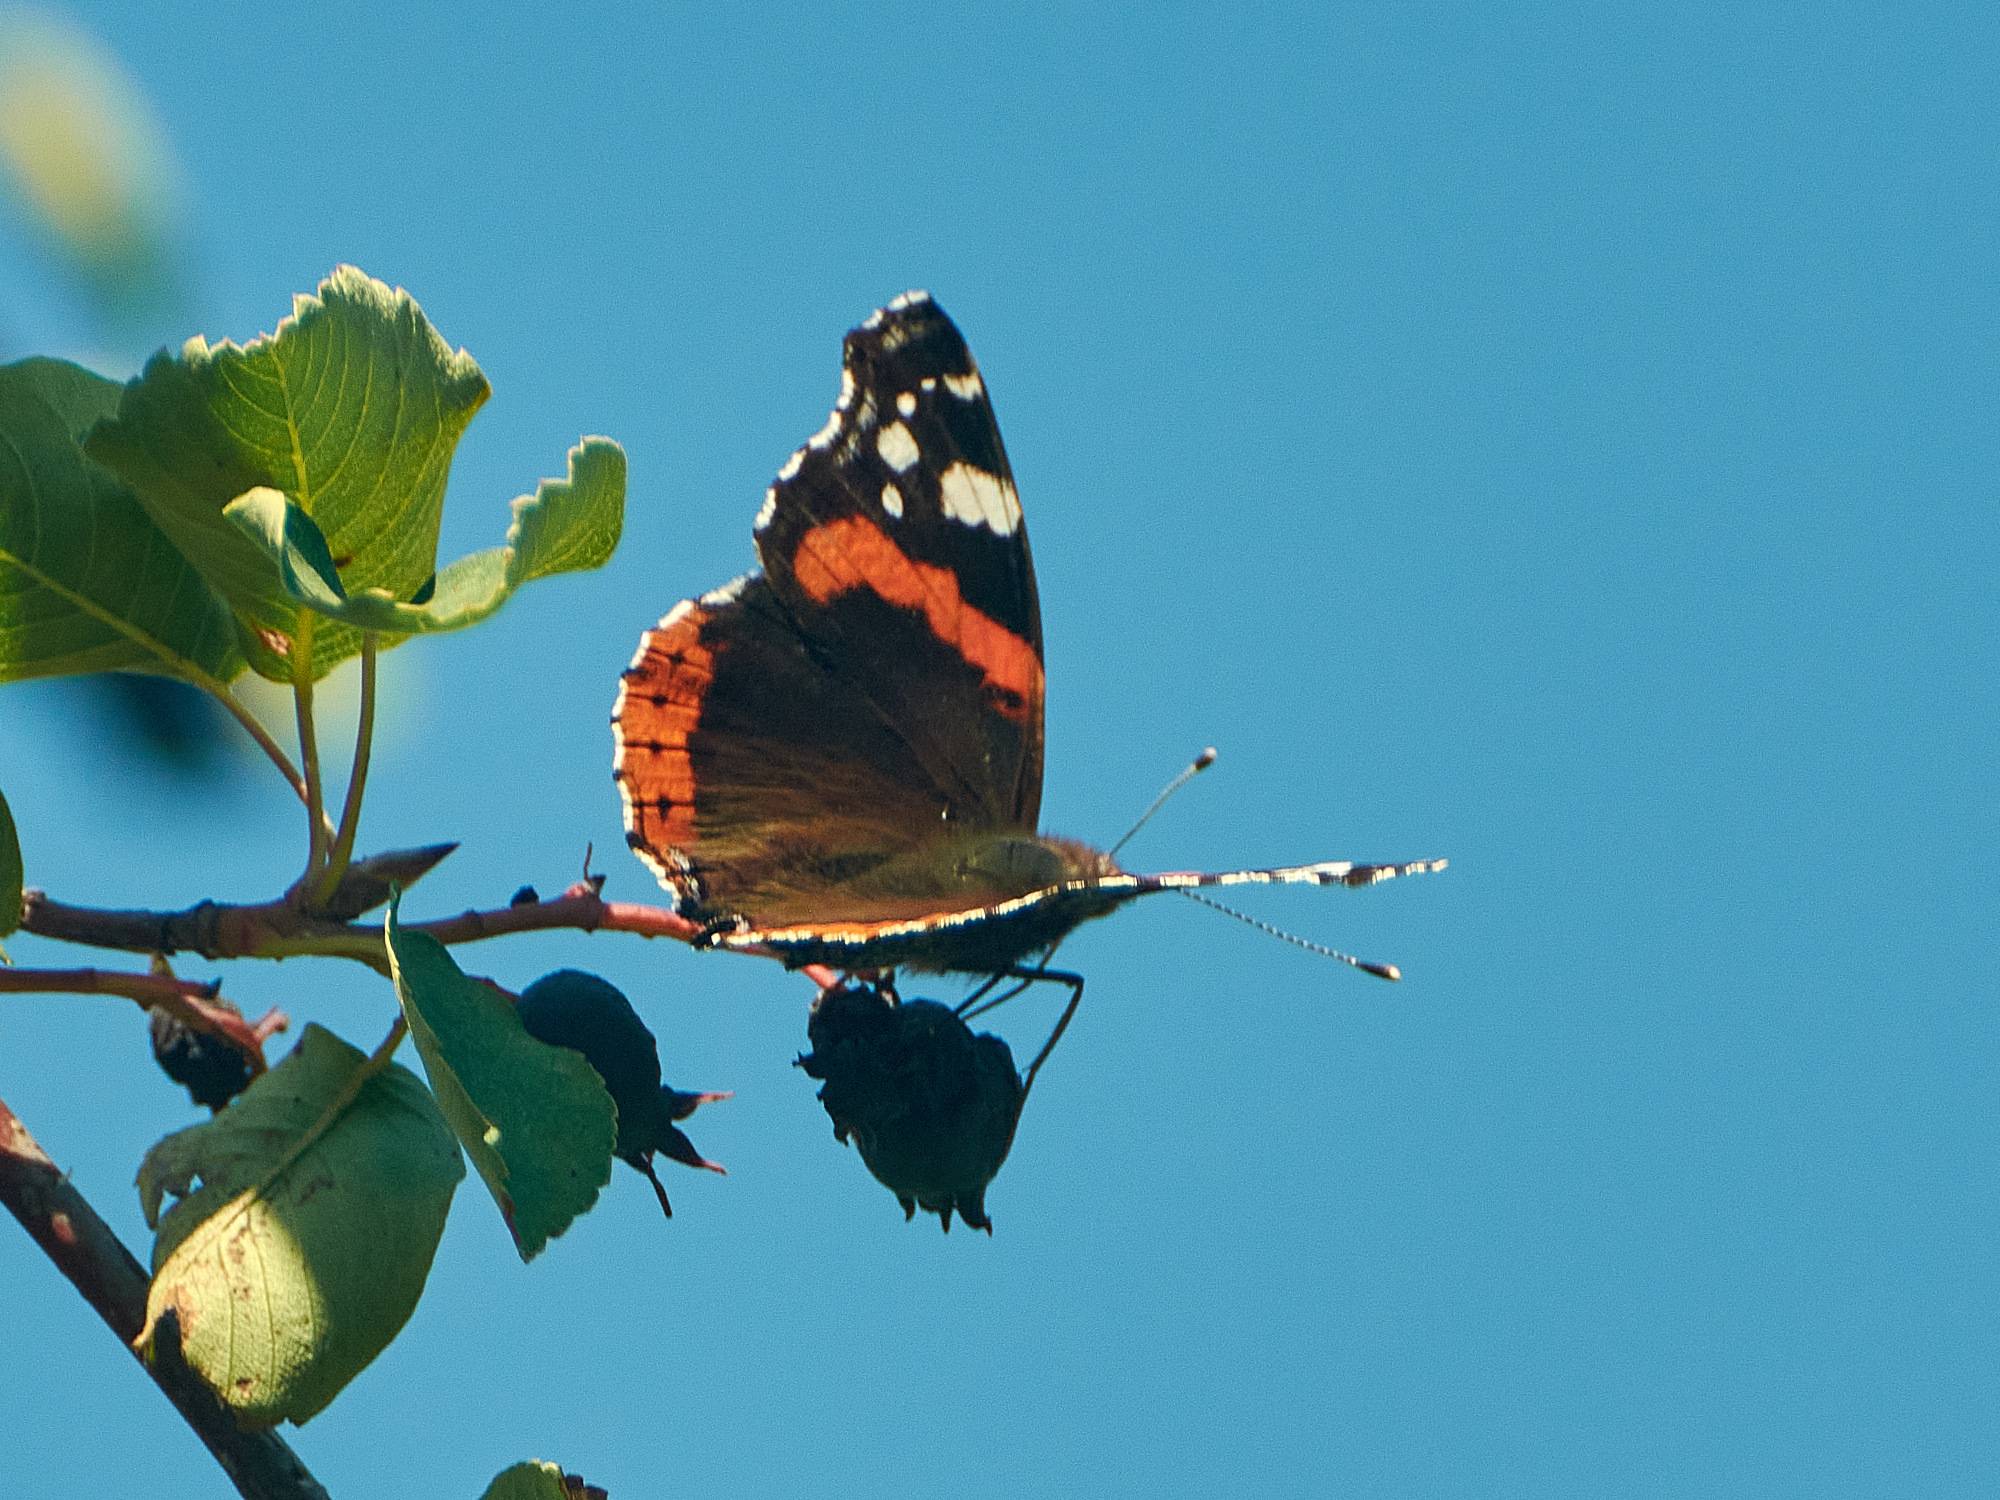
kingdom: Animalia
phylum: Arthropoda
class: Insecta
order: Lepidoptera
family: Nymphalidae
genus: Vanessa
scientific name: Vanessa atalanta
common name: Red admiral
